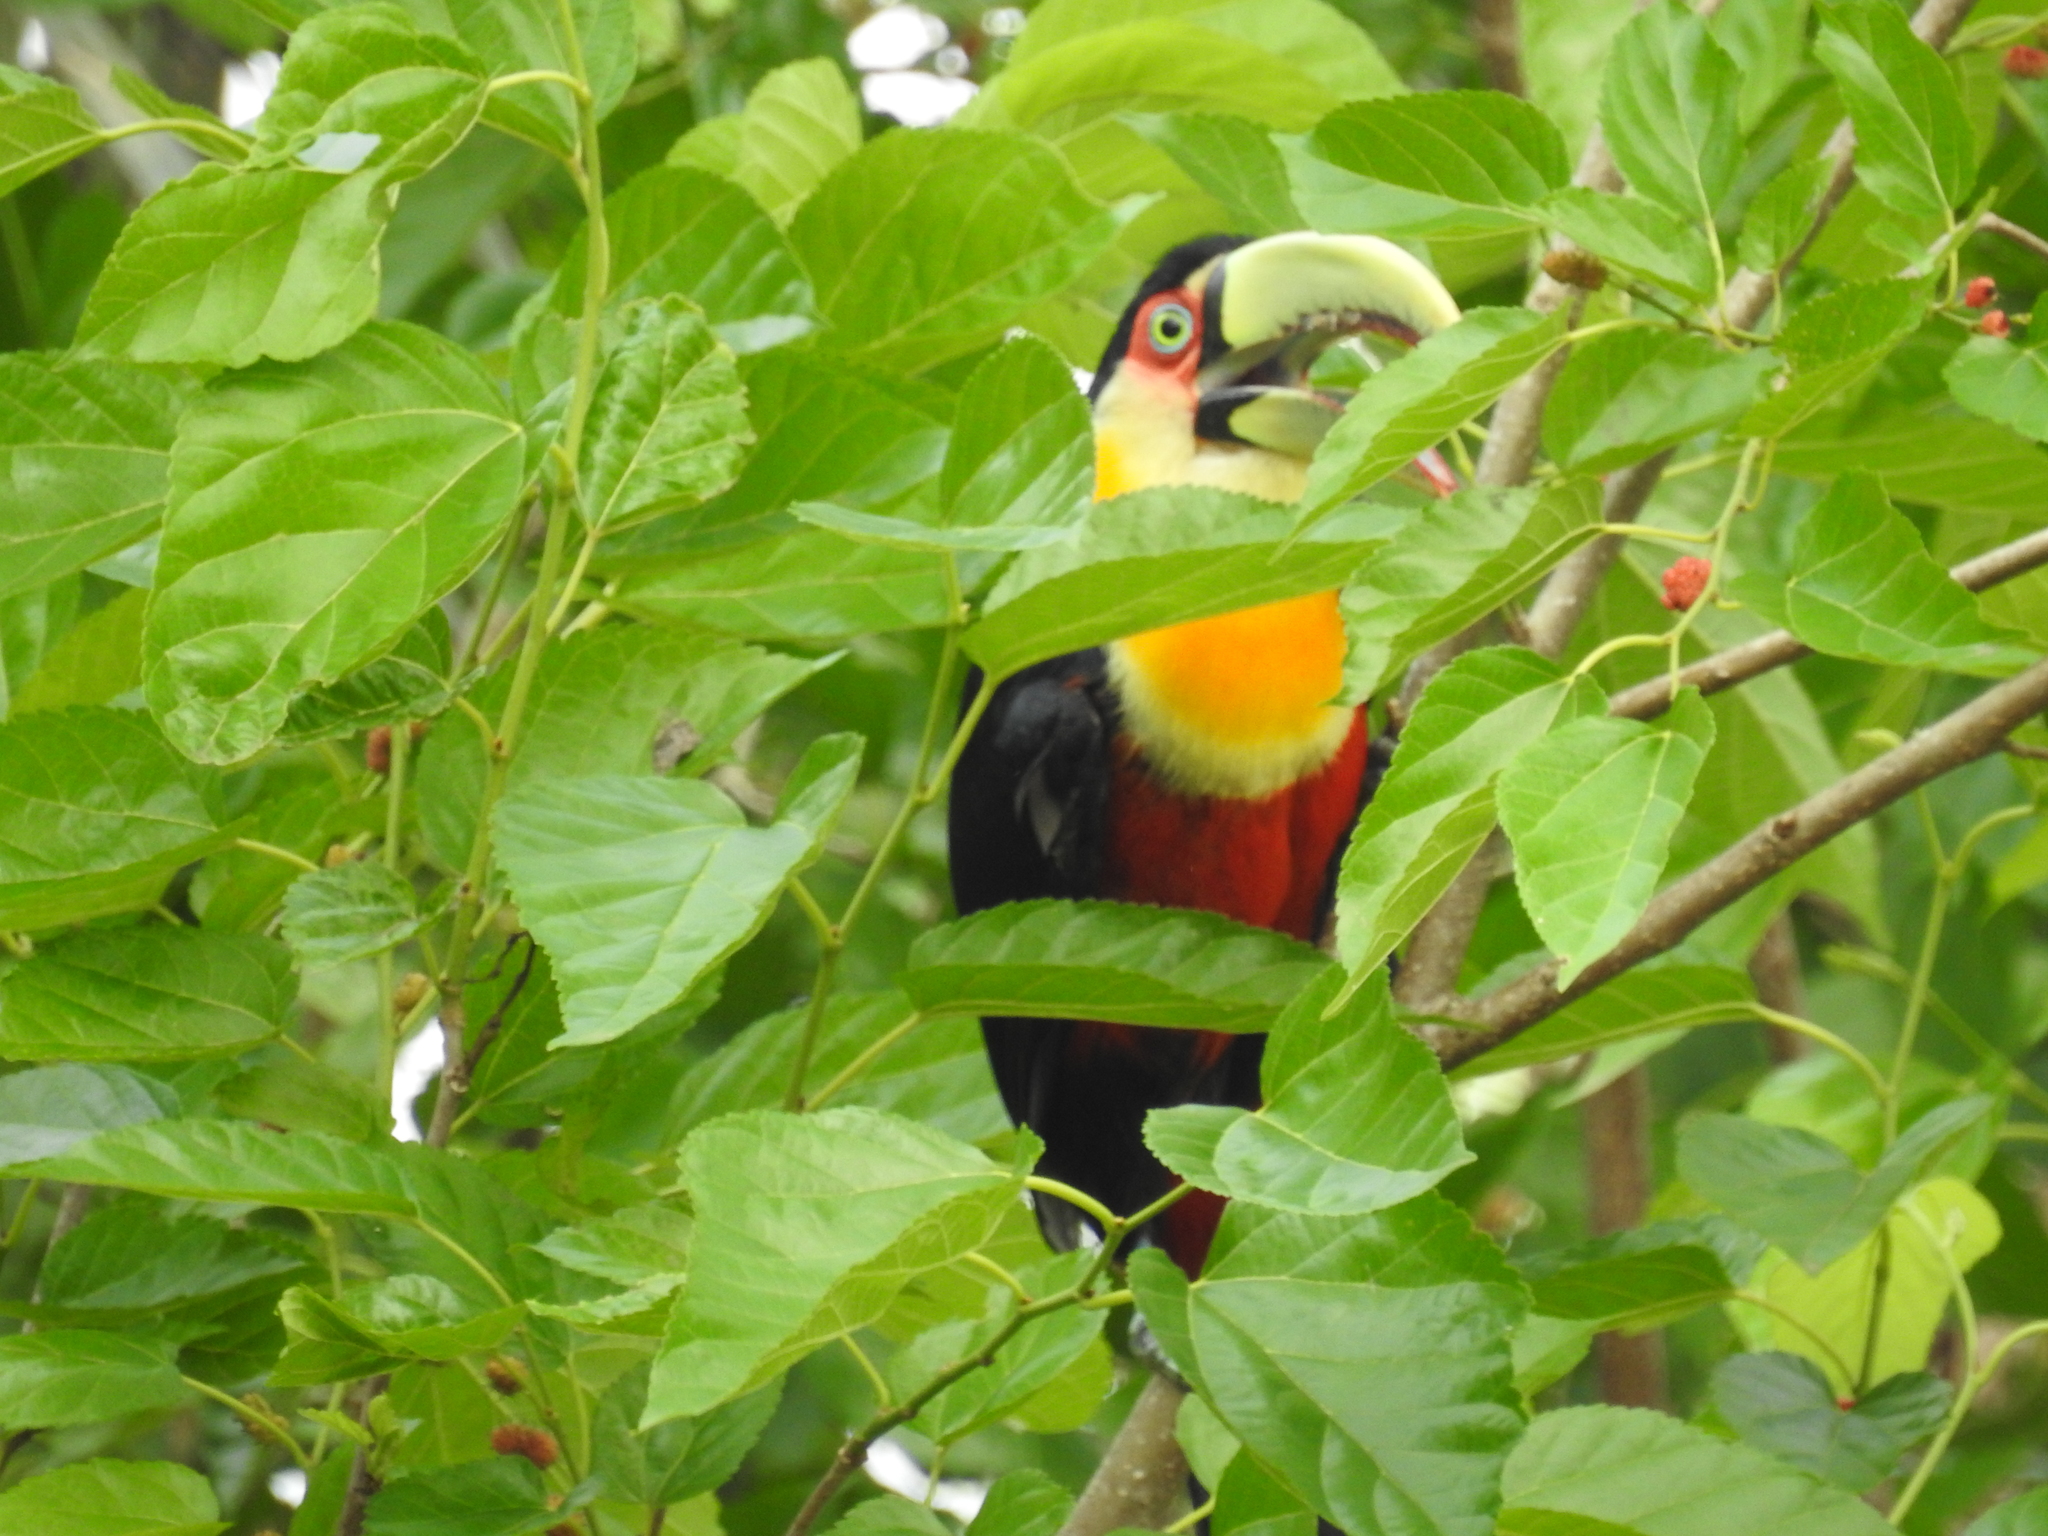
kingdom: Animalia
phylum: Chordata
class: Aves
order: Piciformes
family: Ramphastidae
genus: Ramphastos
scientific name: Ramphastos dicolorus
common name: Green-billed toucan
